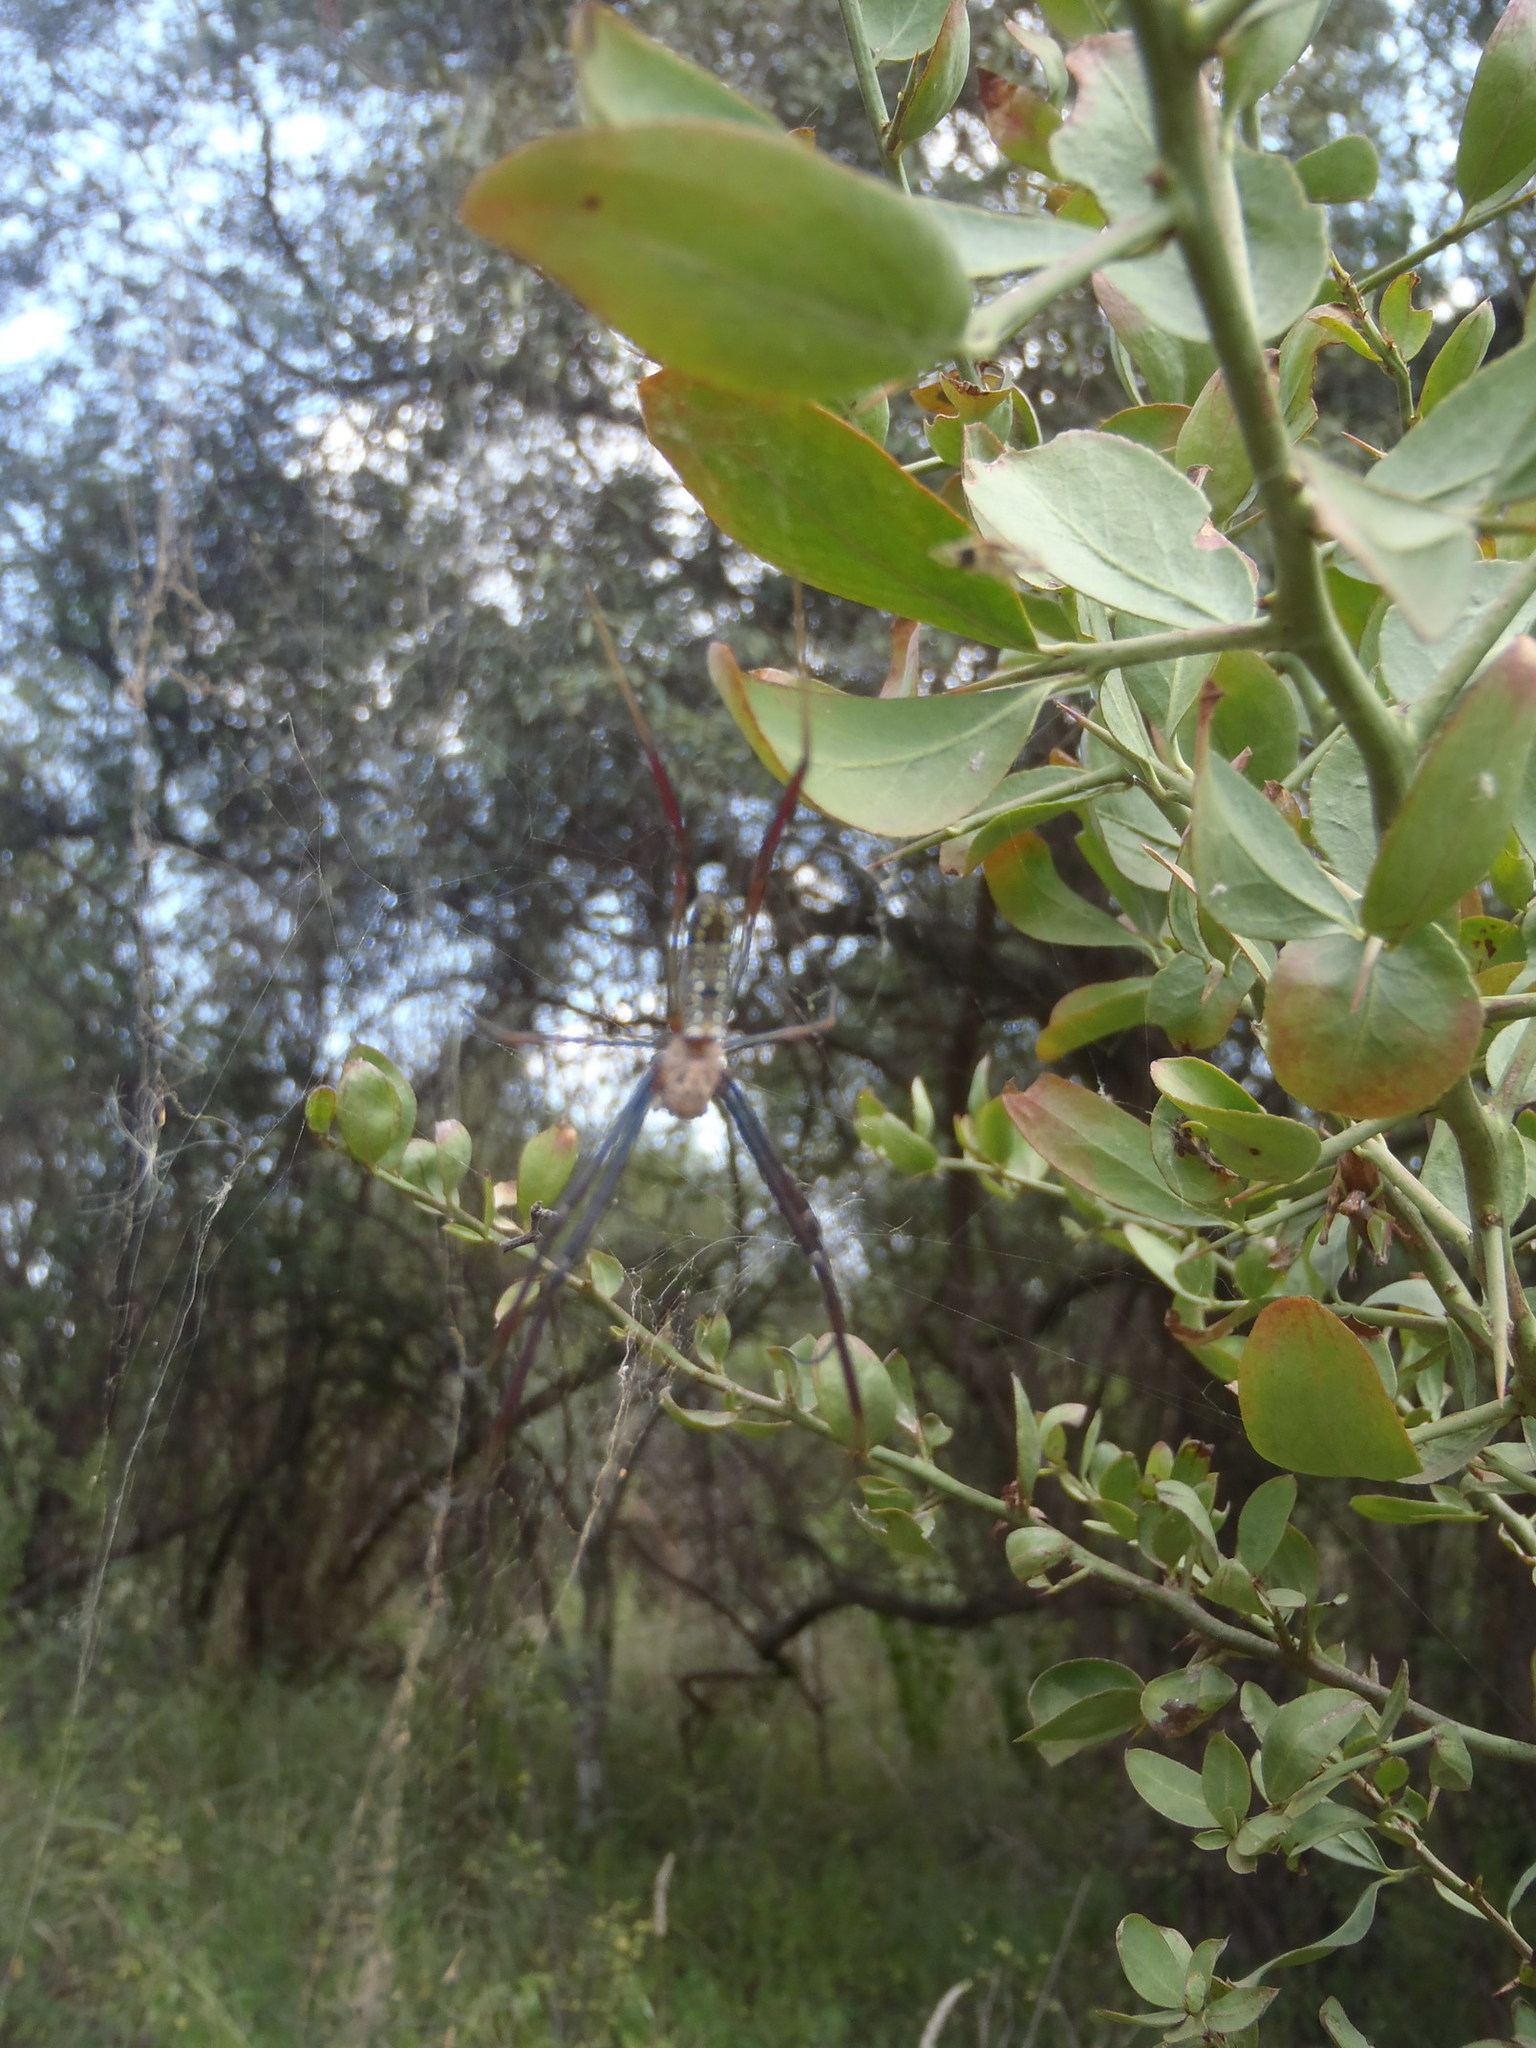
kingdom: Animalia
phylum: Arthropoda
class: Arachnida
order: Araneae
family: Araneidae
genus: Trichonephila
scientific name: Trichonephila inaurata
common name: Red-legged golden orb weaver
